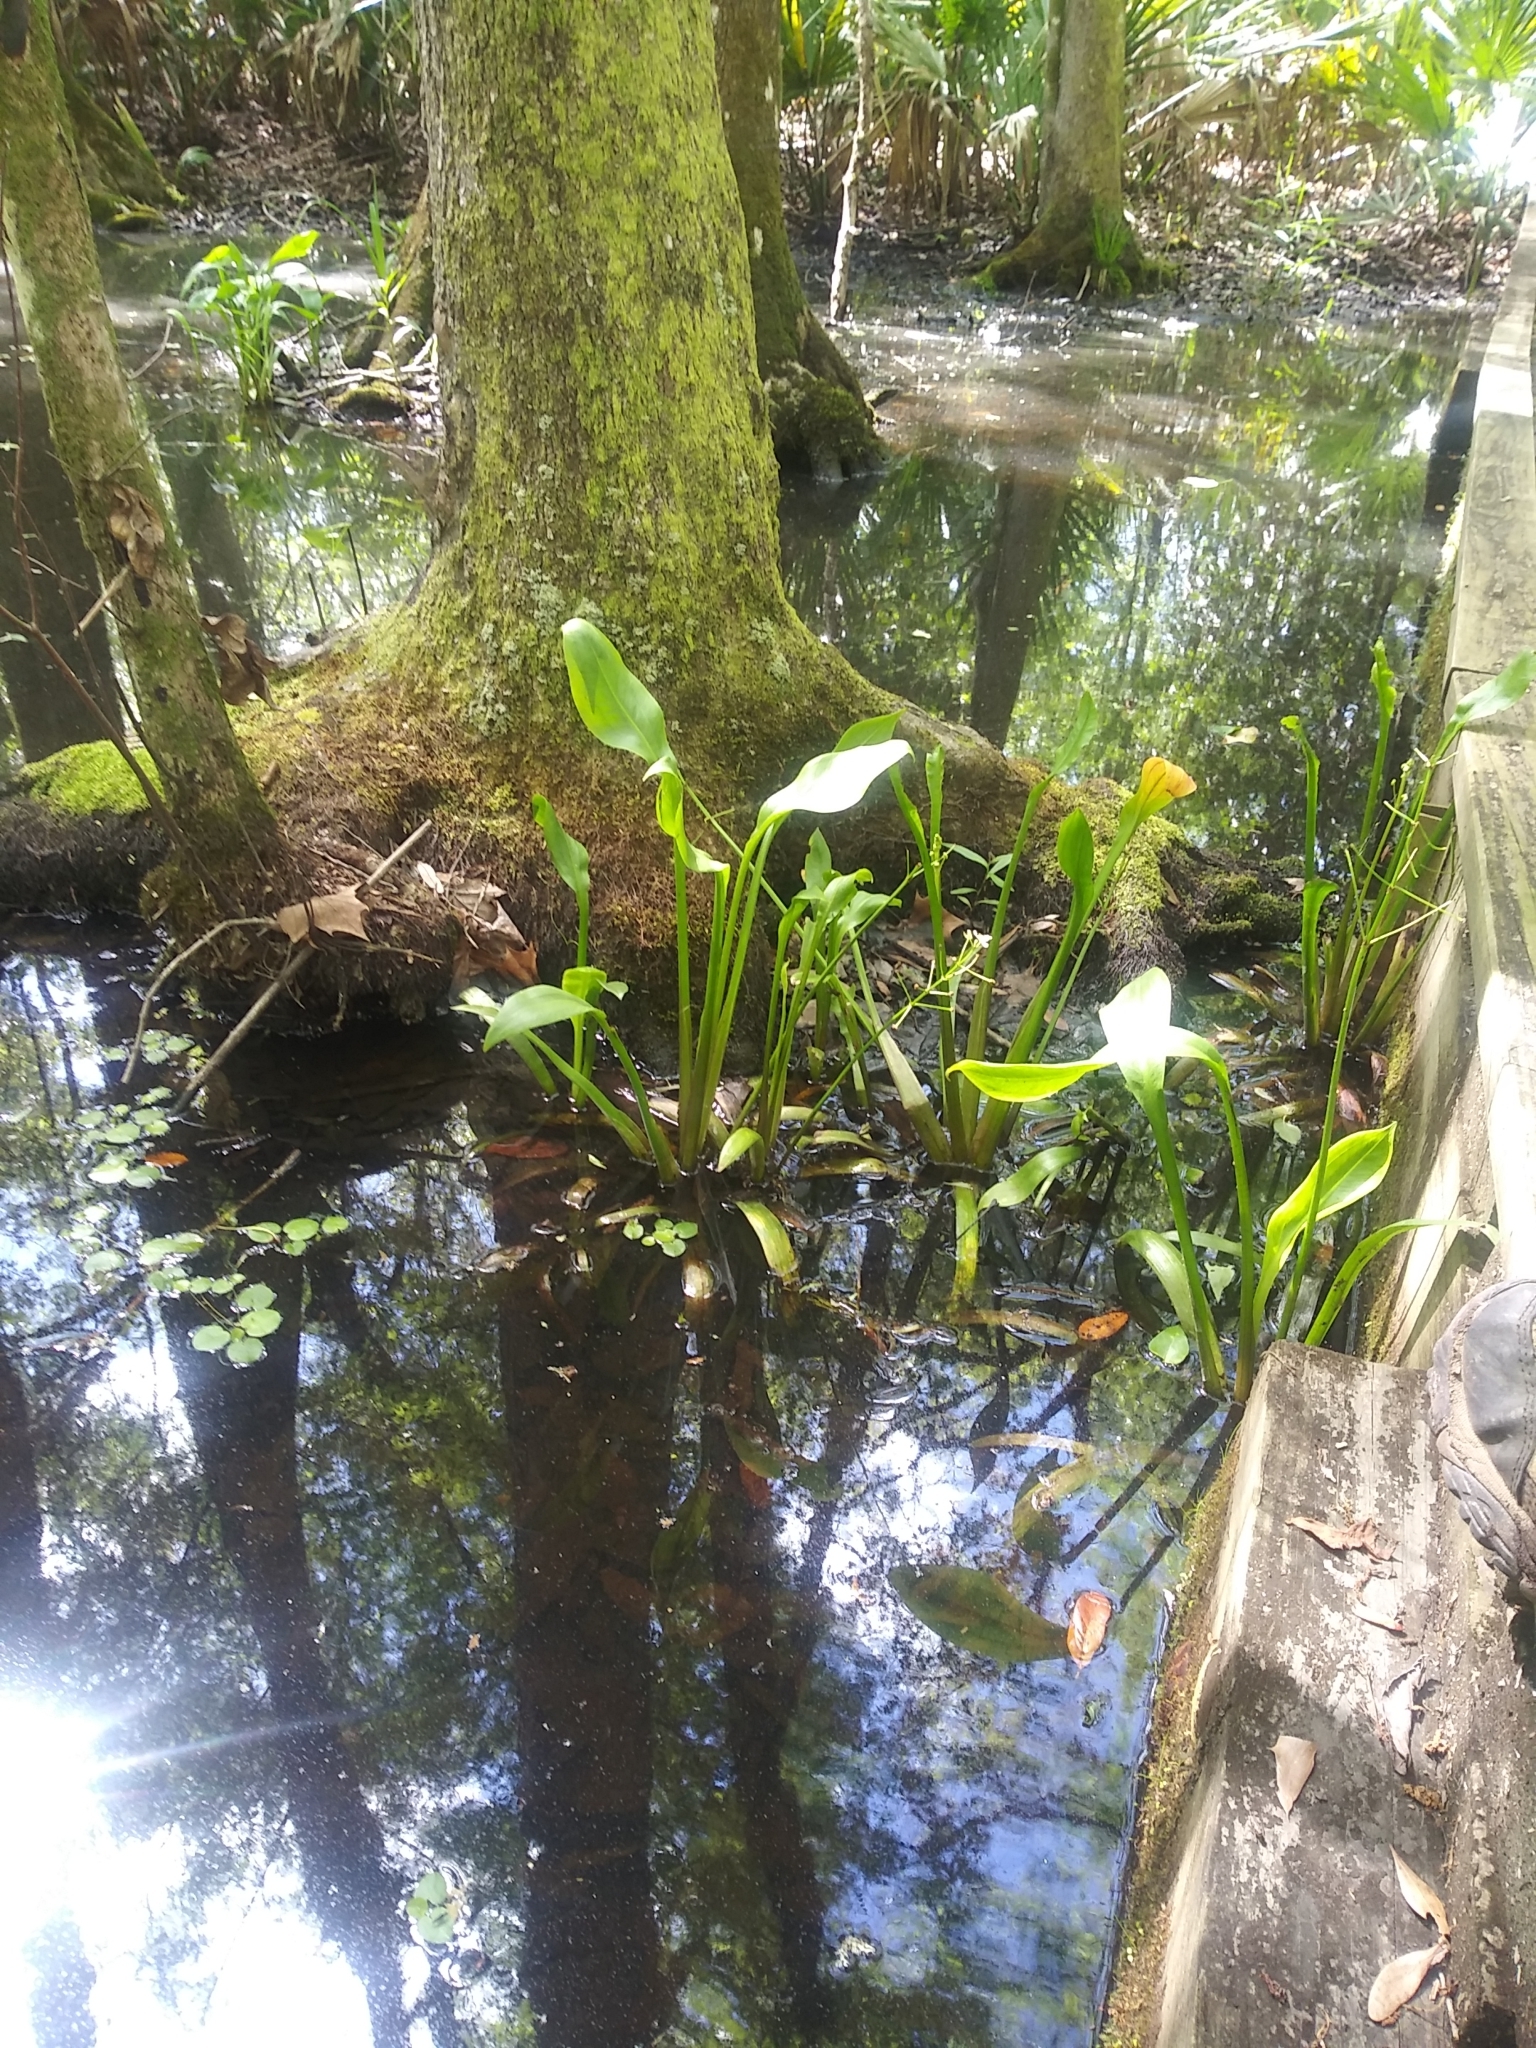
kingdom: Plantae
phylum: Tracheophyta
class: Liliopsida
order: Alismatales
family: Alismataceae
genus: Sagittaria
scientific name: Sagittaria lancifolia
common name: Lance-leaf arrowhead
